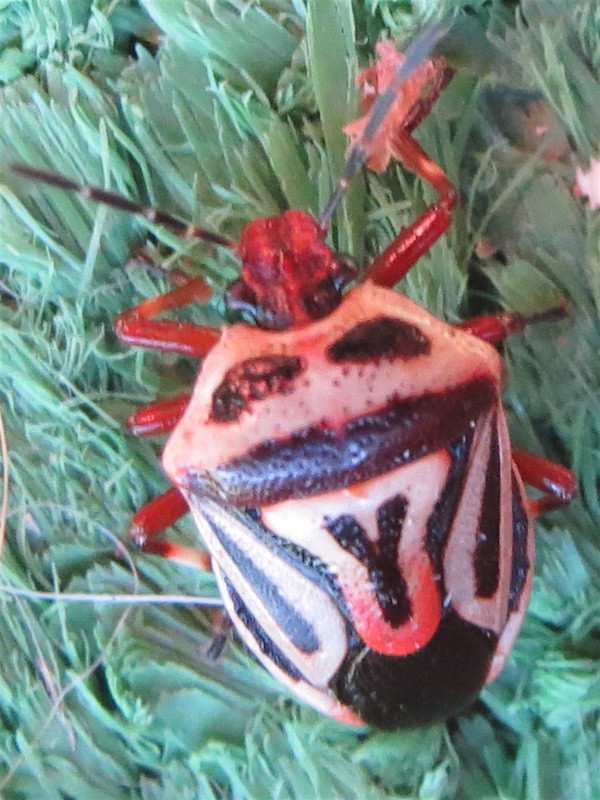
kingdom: Animalia
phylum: Arthropoda
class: Insecta
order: Hemiptera
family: Pentatomidae
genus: Perillus
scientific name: Perillus bioculatus
